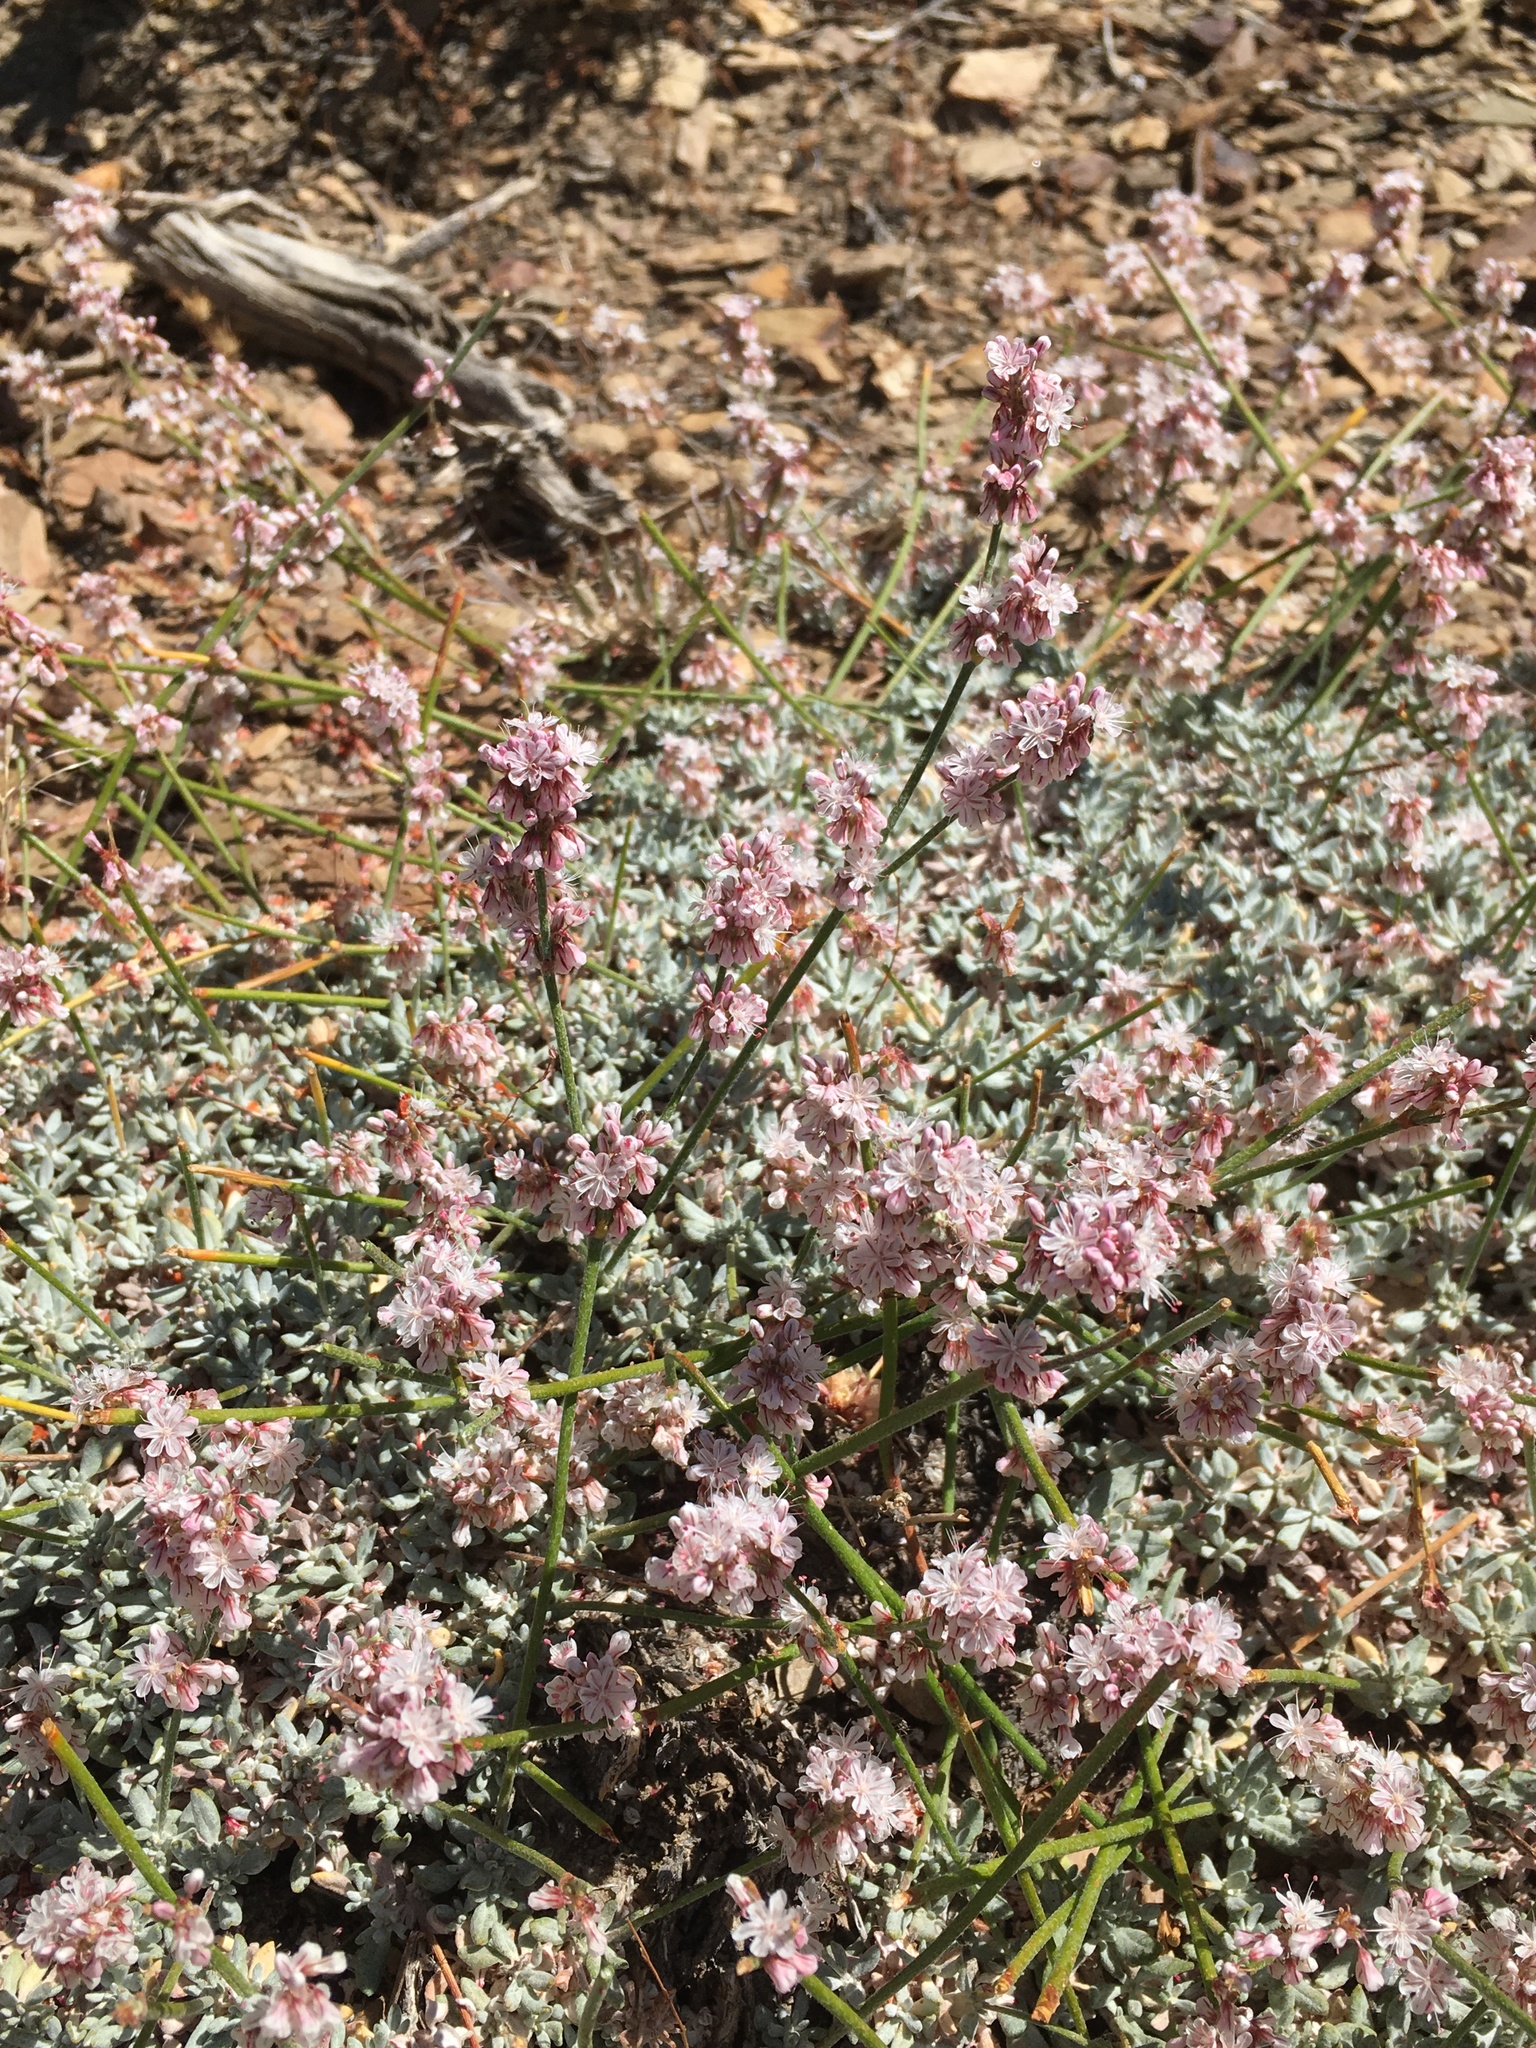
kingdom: Plantae
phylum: Tracheophyta
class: Magnoliopsida
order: Caryophyllales
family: Polygonaceae
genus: Eriogonum
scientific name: Eriogonum wrightii
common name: Bastard-sage
